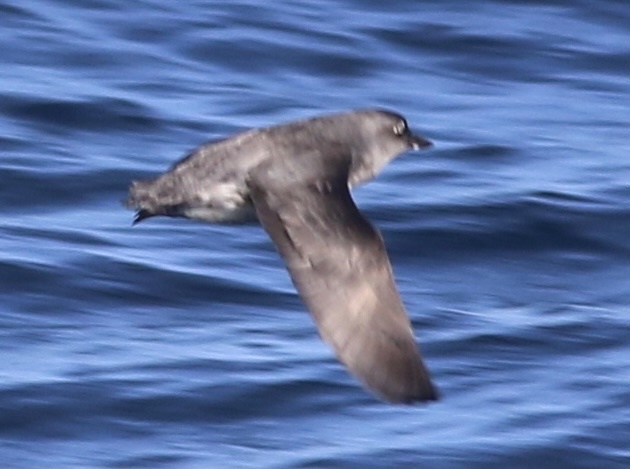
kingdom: Animalia
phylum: Chordata
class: Aves
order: Charadriiformes
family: Alcidae
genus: Ptychoramphus
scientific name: Ptychoramphus aleuticus
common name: Cassin's auklet
